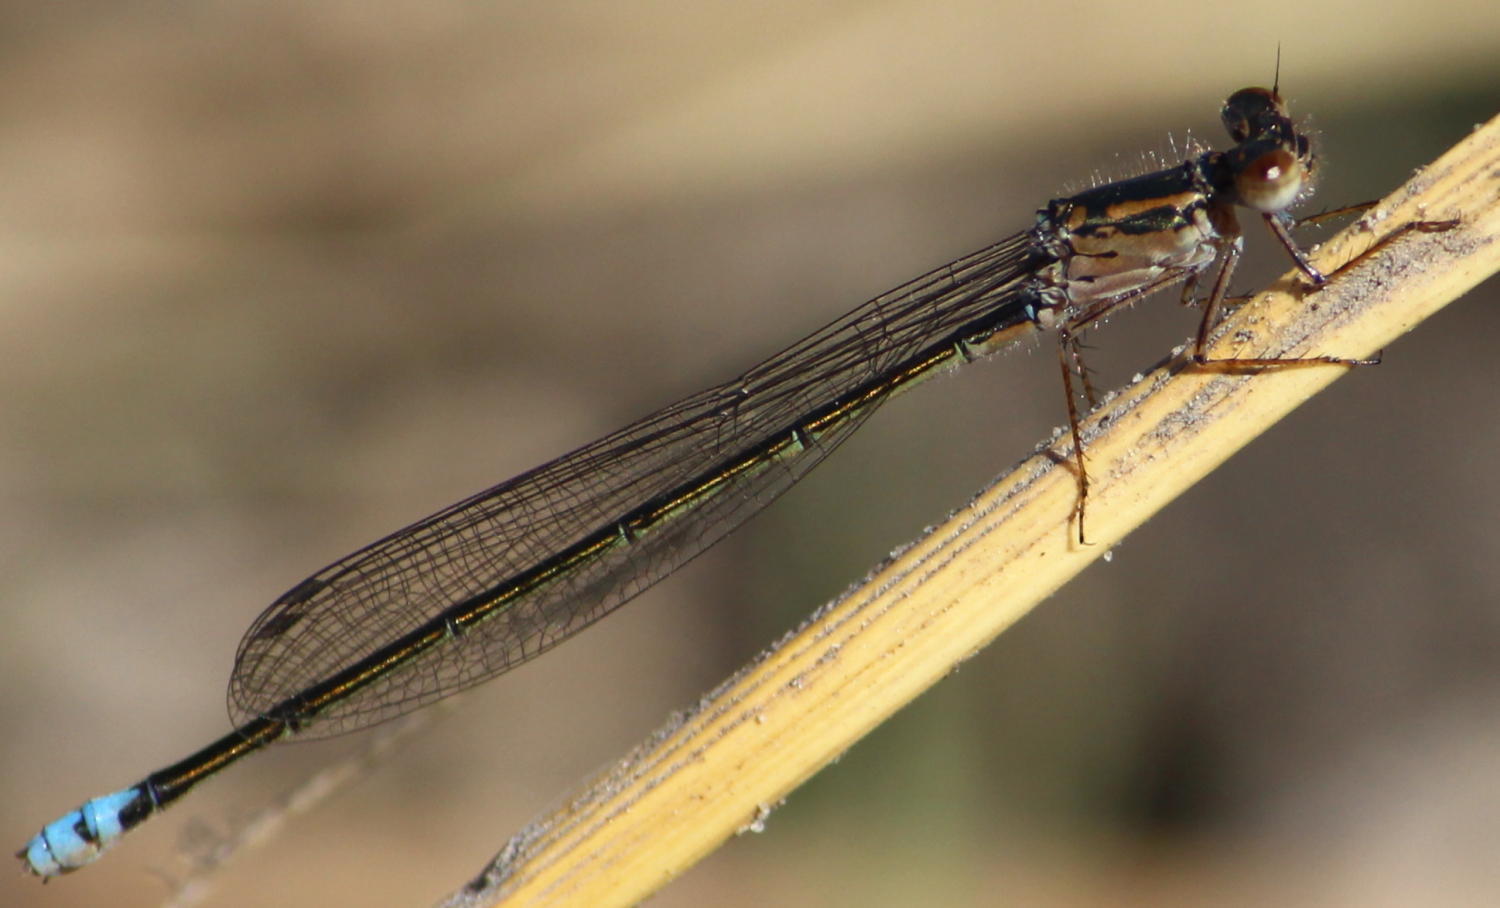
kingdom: Animalia
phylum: Arthropoda
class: Insecta
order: Odonata
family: Coenagrionidae
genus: Pseudagrion
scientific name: Pseudagrion deningi
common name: Dening's sprite
